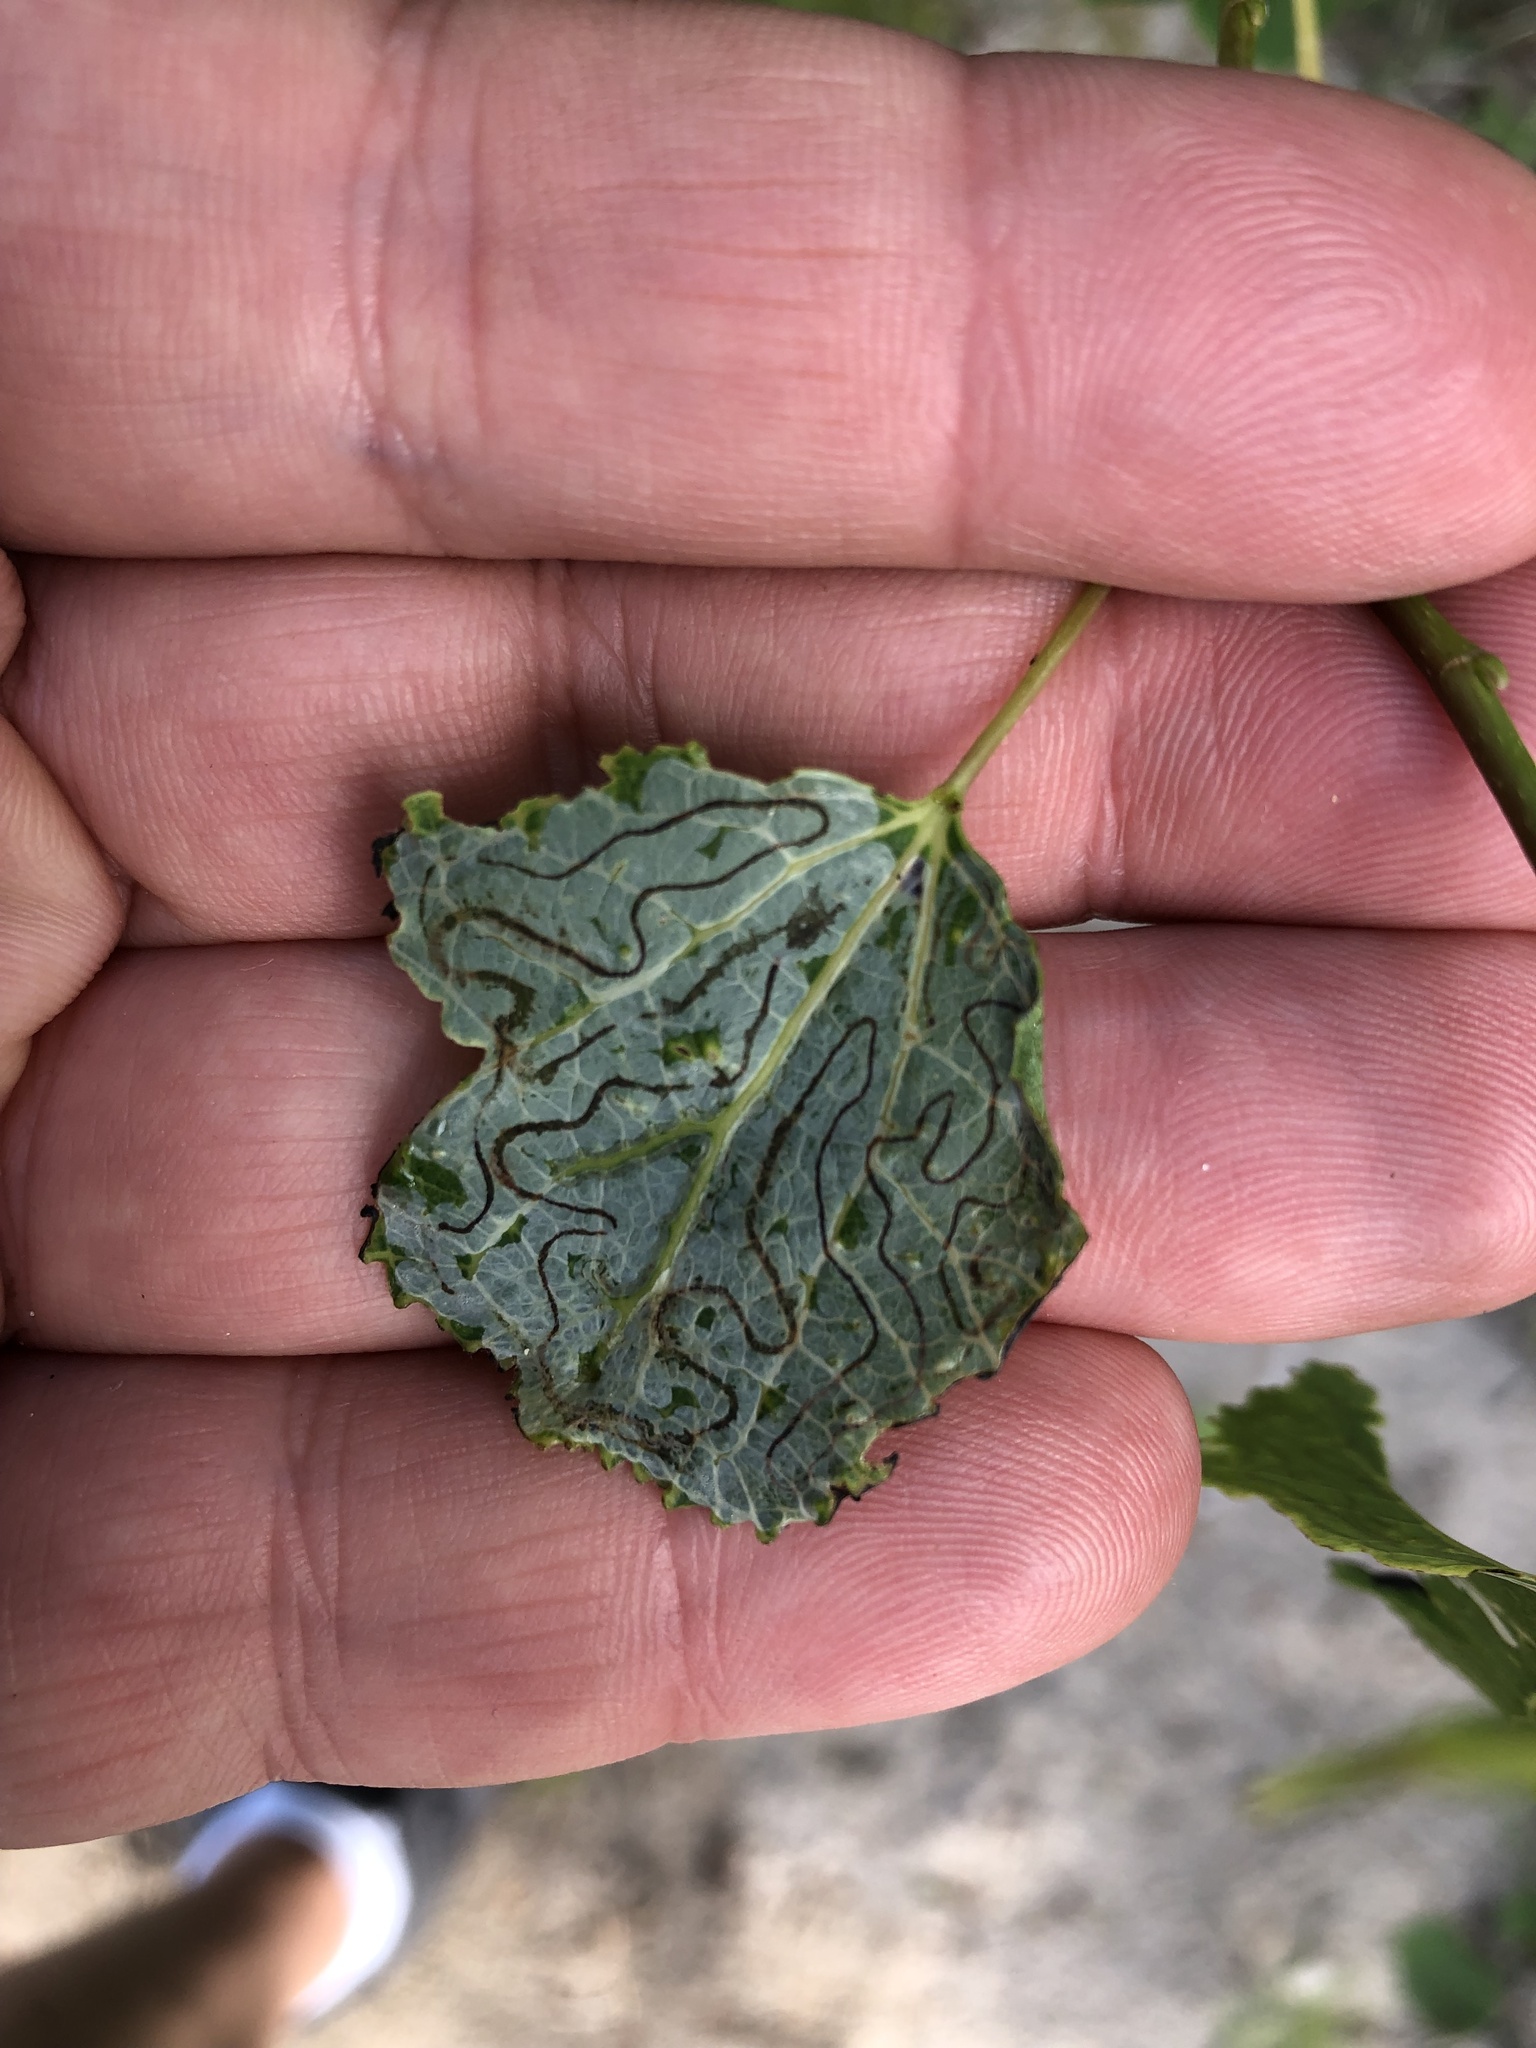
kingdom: Animalia
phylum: Arthropoda
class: Insecta
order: Lepidoptera
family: Gracillariidae
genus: Phyllocnistis
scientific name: Phyllocnistis populiella
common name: Aspen serpentine leafminer moth
